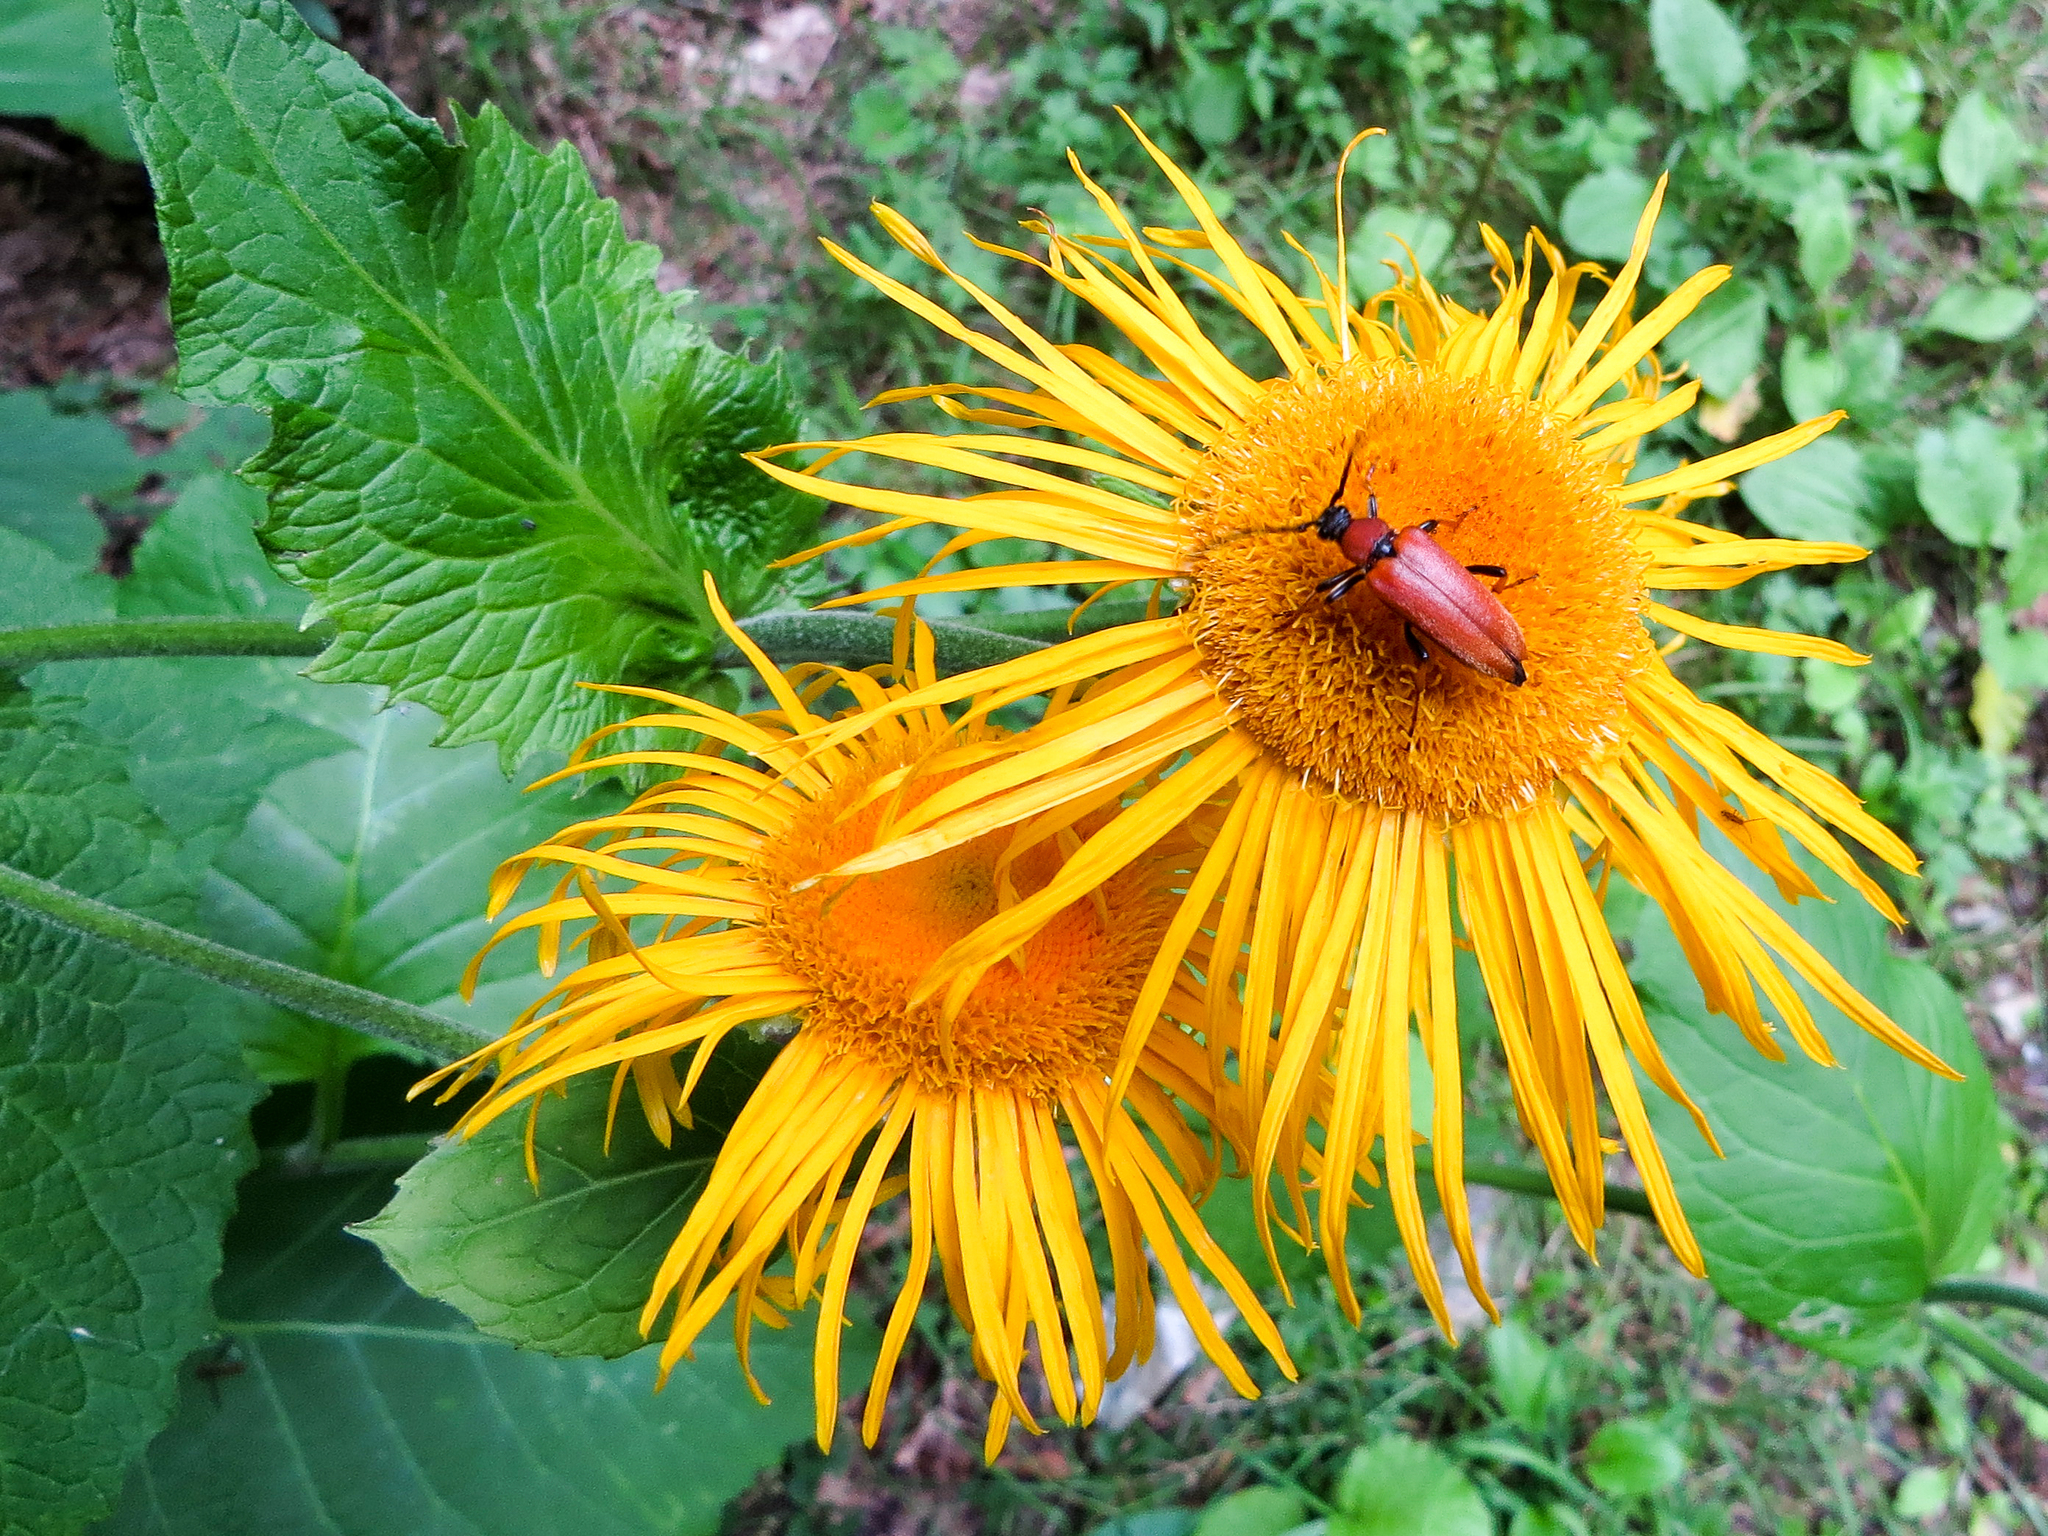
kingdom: Plantae
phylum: Tracheophyta
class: Magnoliopsida
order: Asterales
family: Asteraceae
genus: Telekia
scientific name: Telekia speciosa
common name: Yellow oxeye
